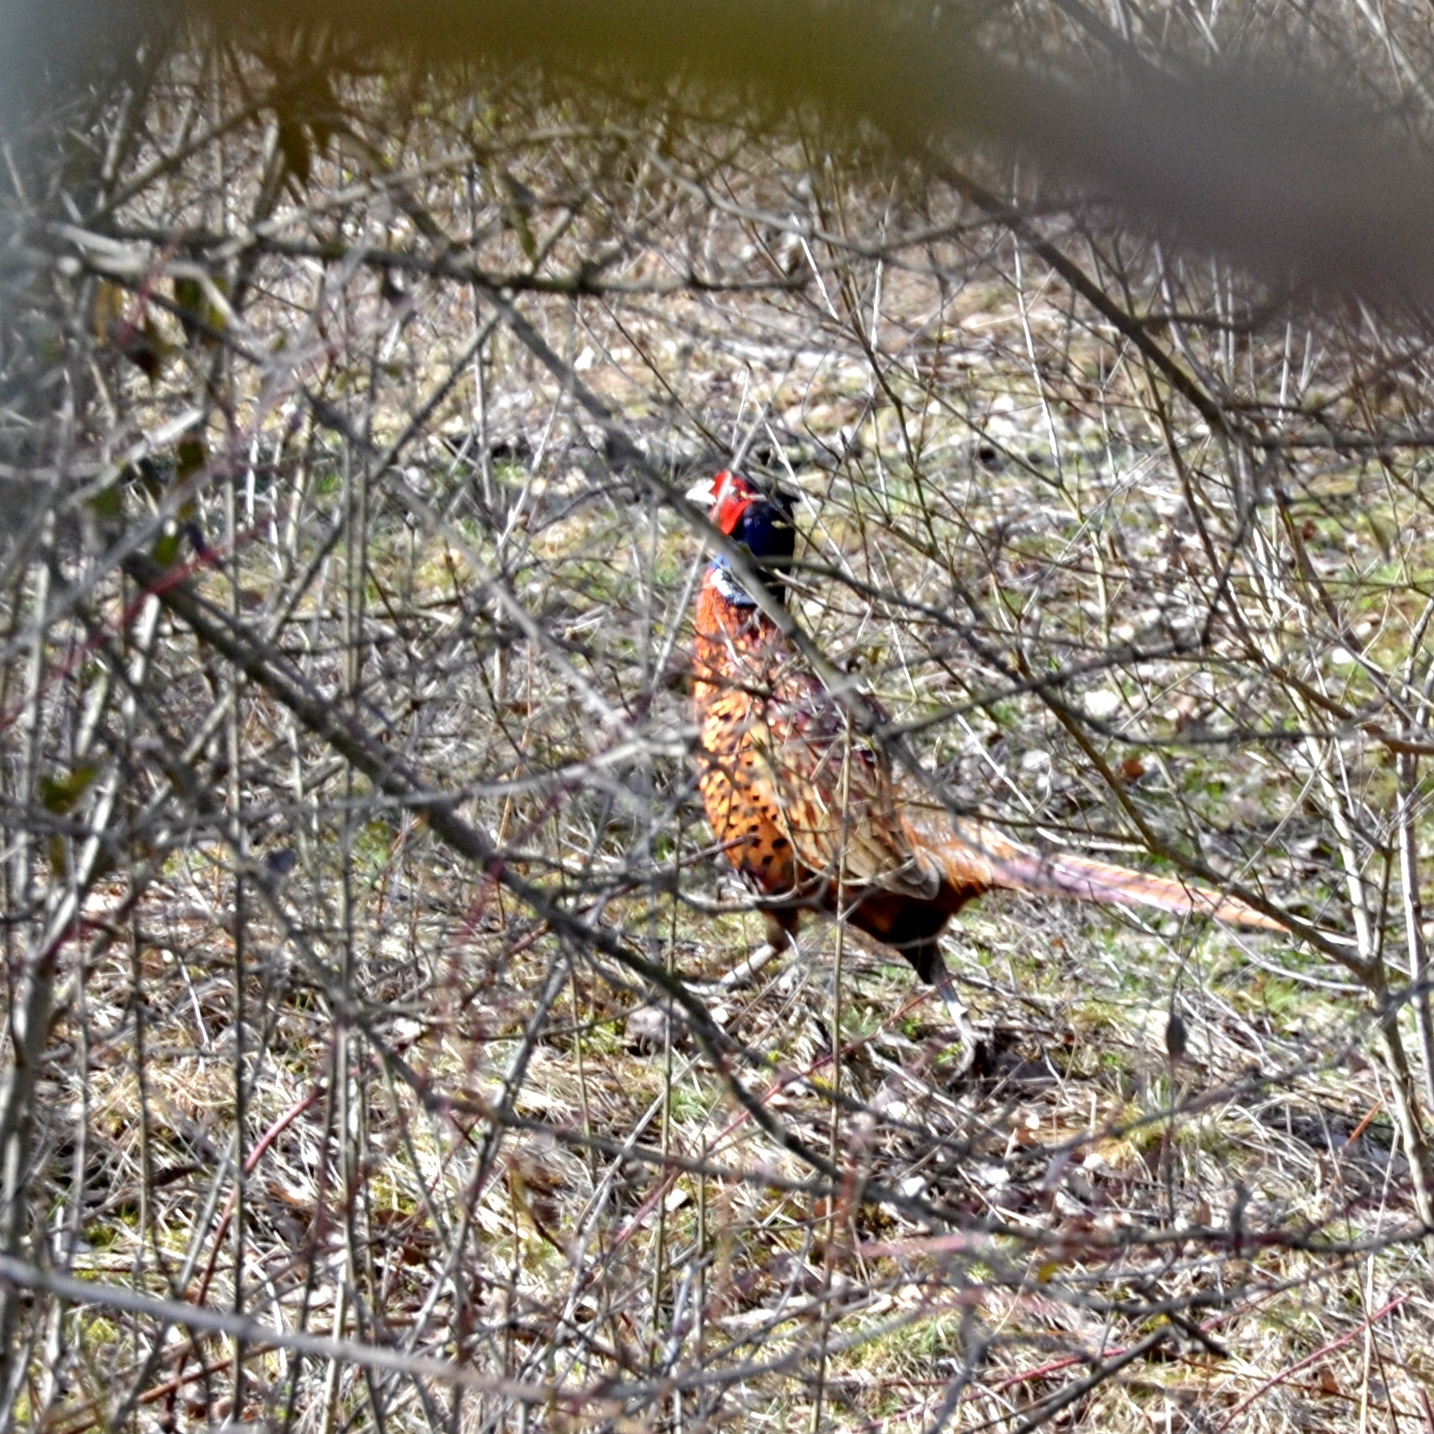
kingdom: Animalia
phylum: Chordata
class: Aves
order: Galliformes
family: Phasianidae
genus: Phasianus
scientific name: Phasianus colchicus
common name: Common pheasant
